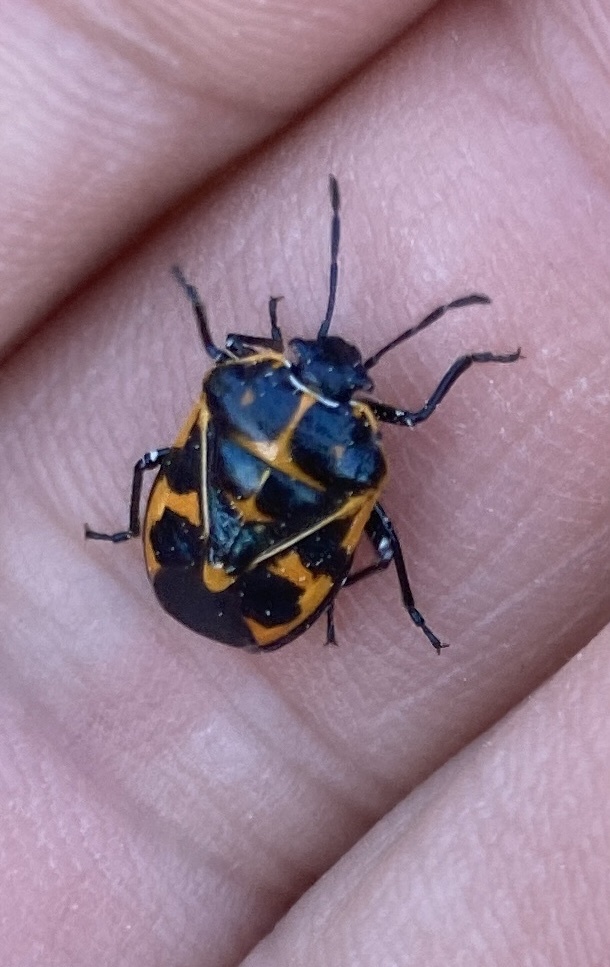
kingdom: Animalia
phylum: Arthropoda
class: Insecta
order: Hemiptera
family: Pentatomidae
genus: Murgantia
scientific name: Murgantia histrionica
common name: Harlequin bug
